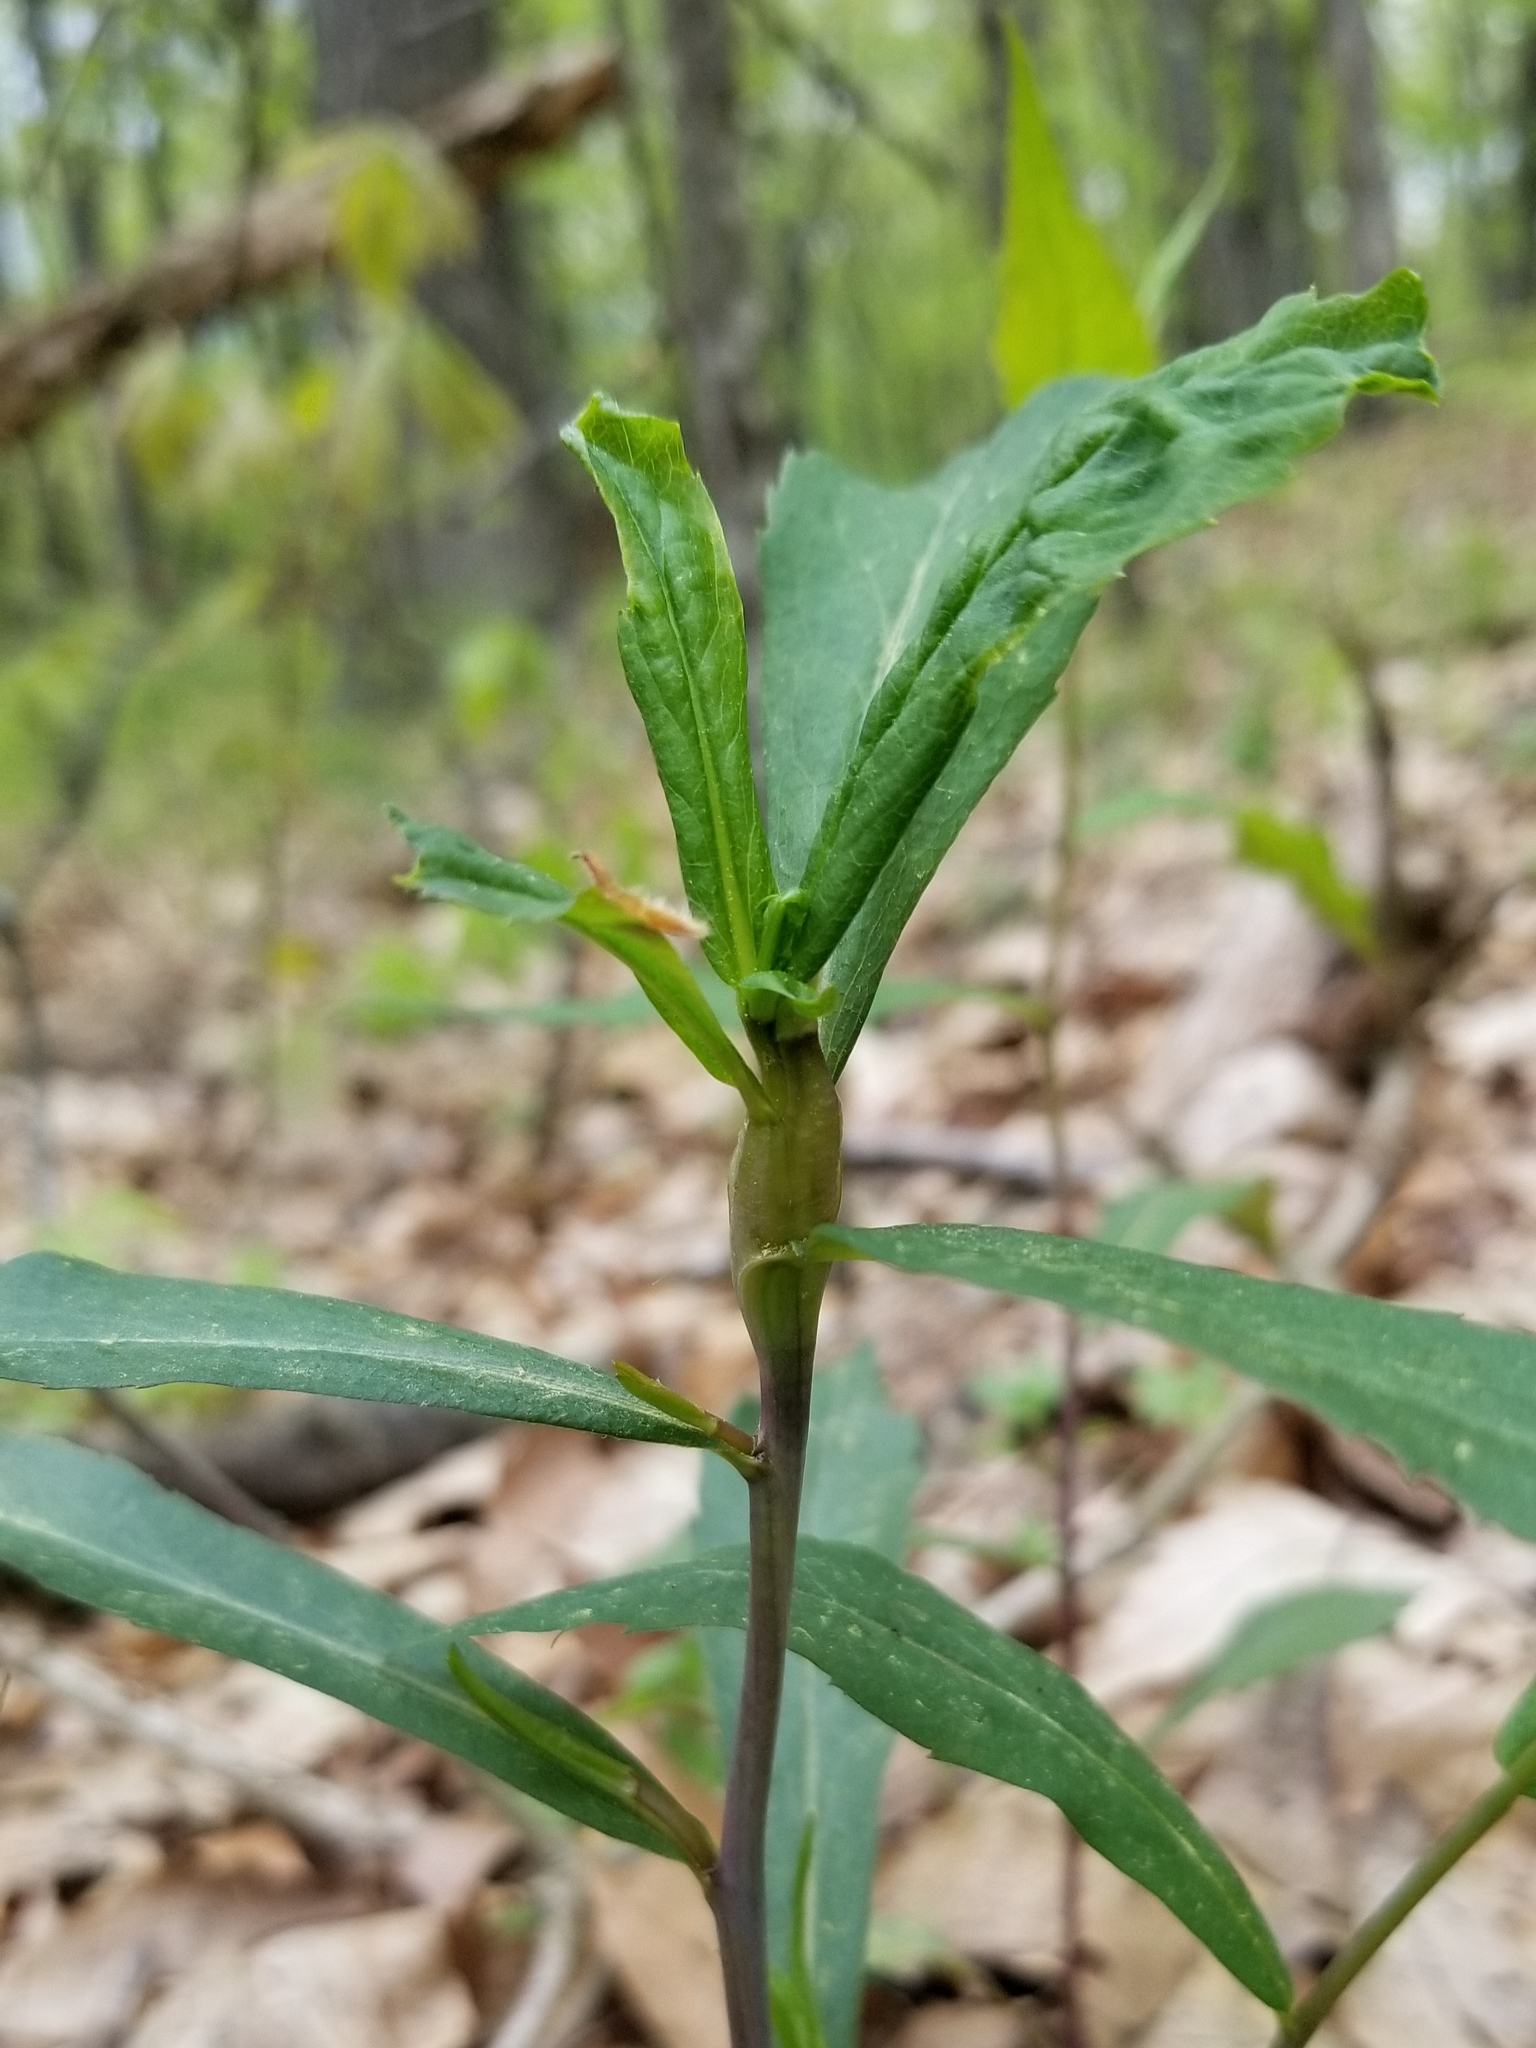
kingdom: Plantae
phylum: Tracheophyta
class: Magnoliopsida
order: Asterales
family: Asteraceae
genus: Solidago
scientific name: Solidago caesia
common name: Woodland goldenrod
